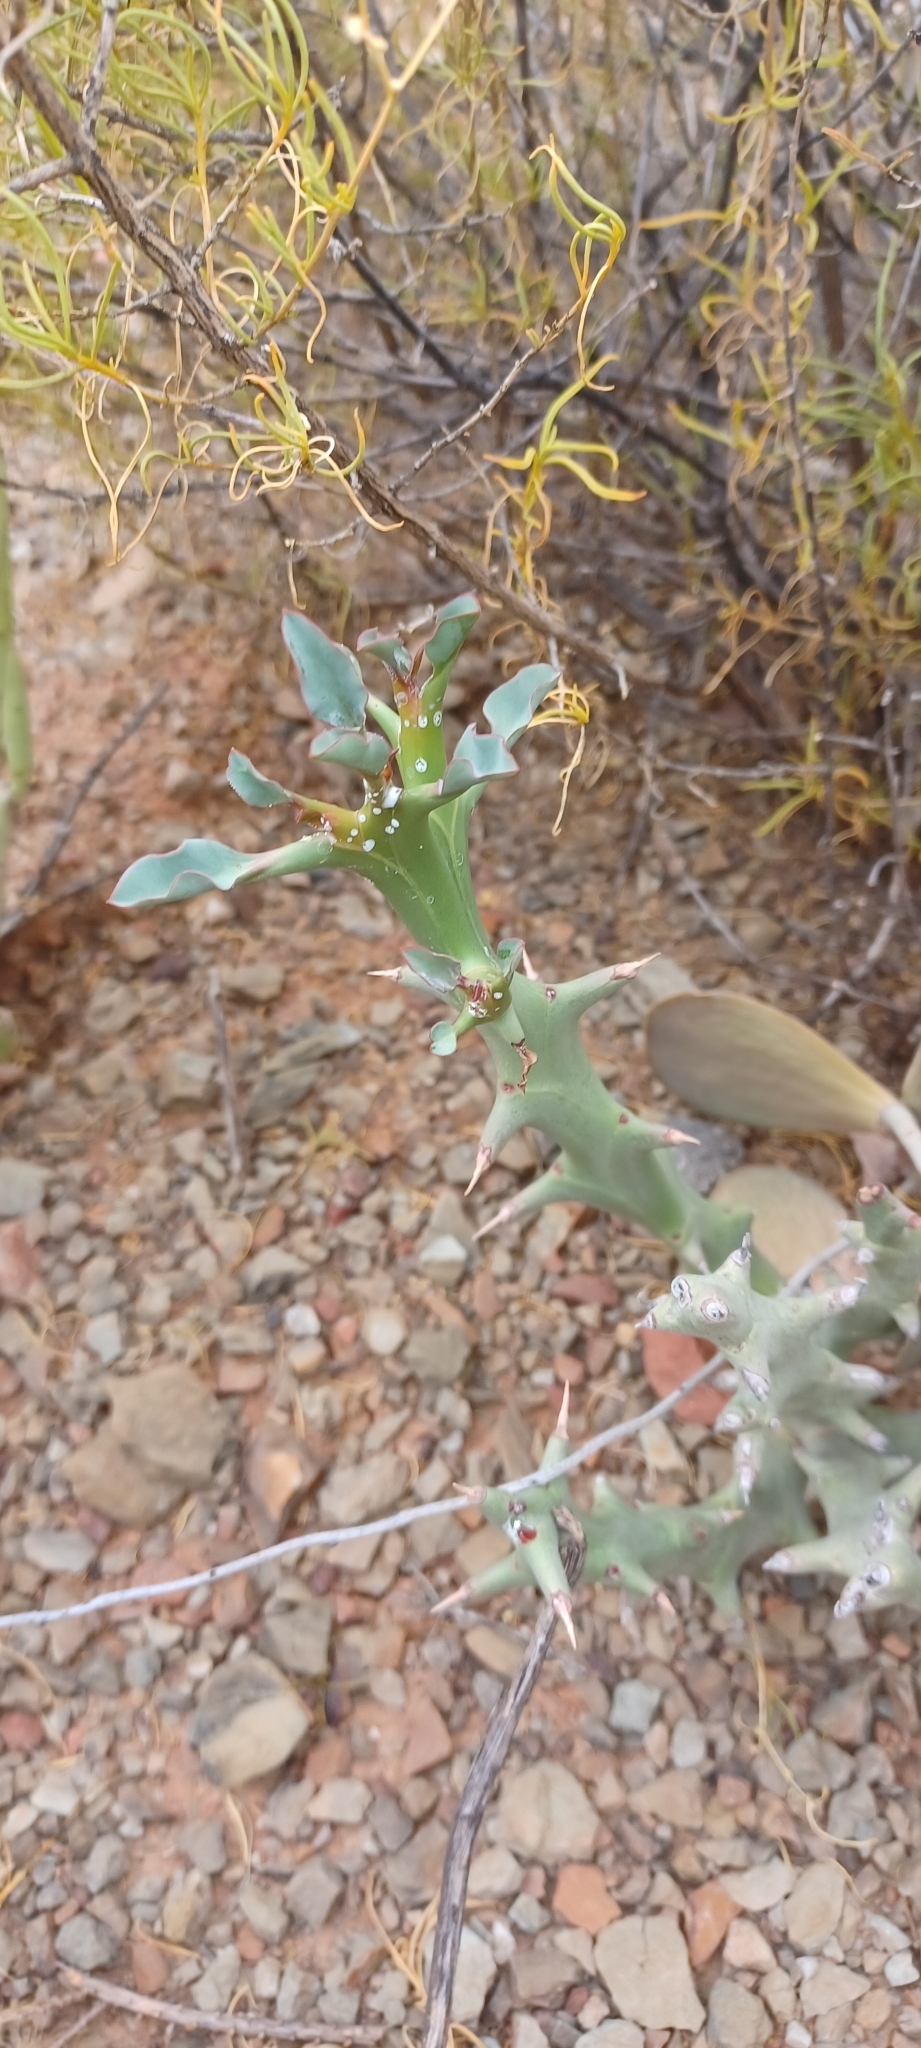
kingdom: Plantae
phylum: Tracheophyta
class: Magnoliopsida
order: Malpighiales
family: Euphorbiaceae
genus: Euphorbia
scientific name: Euphorbia hamata
